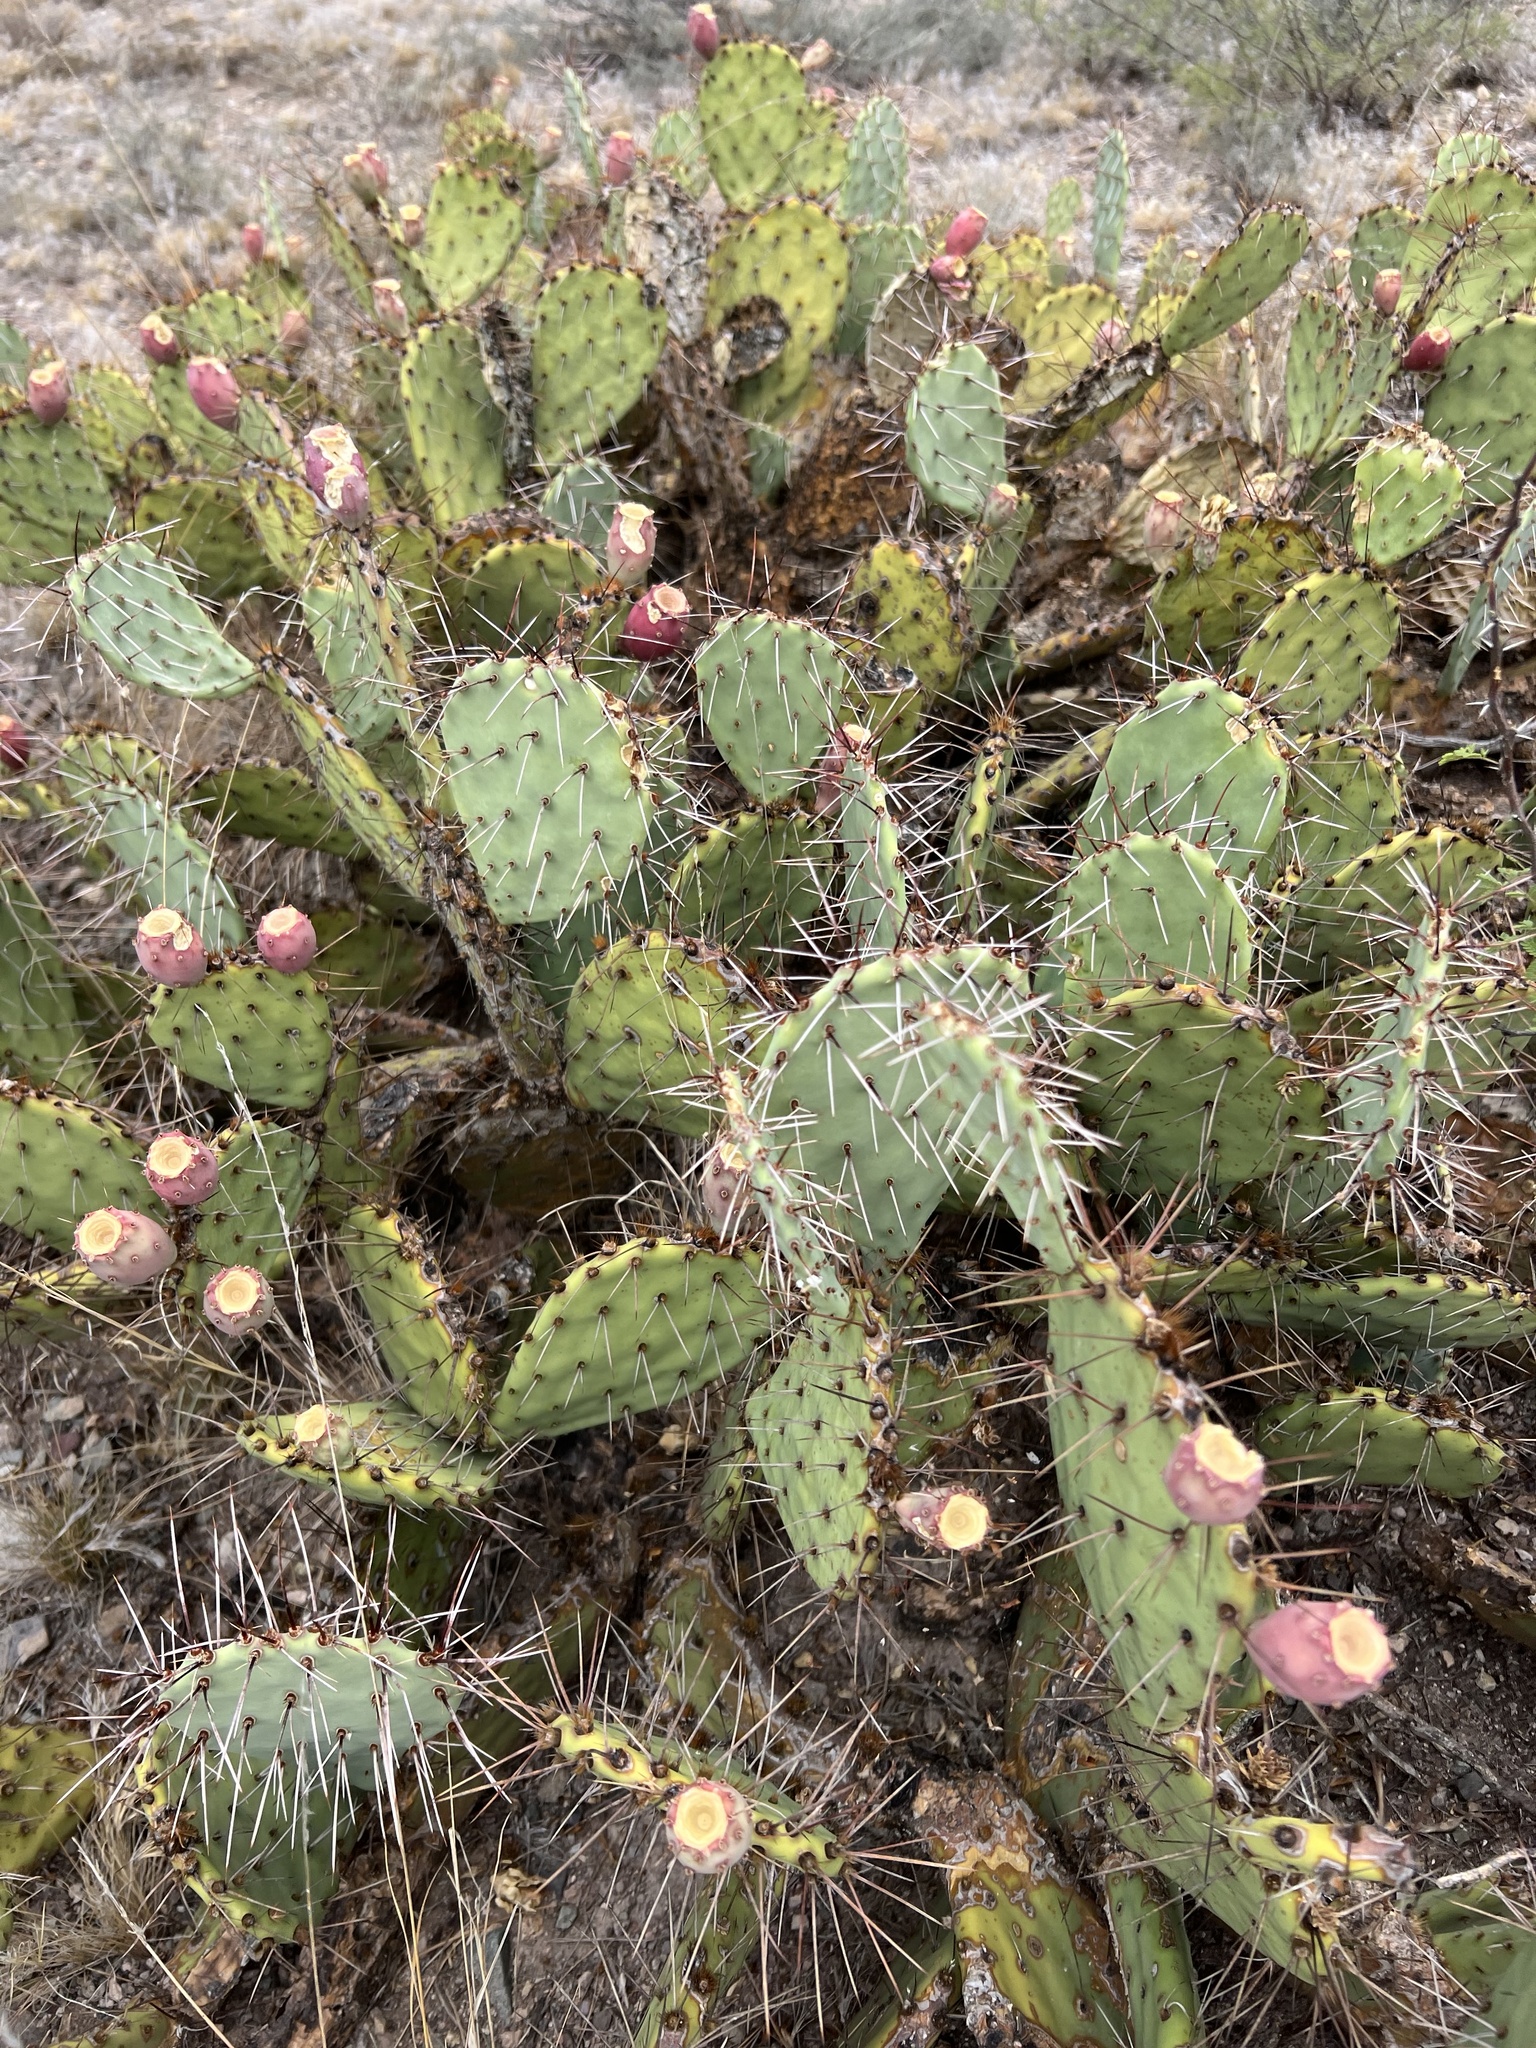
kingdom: Plantae
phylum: Tracheophyta
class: Magnoliopsida
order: Caryophyllales
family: Cactaceae
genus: Opuntia
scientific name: Opuntia phaeacantha
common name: New mexico prickly-pear
